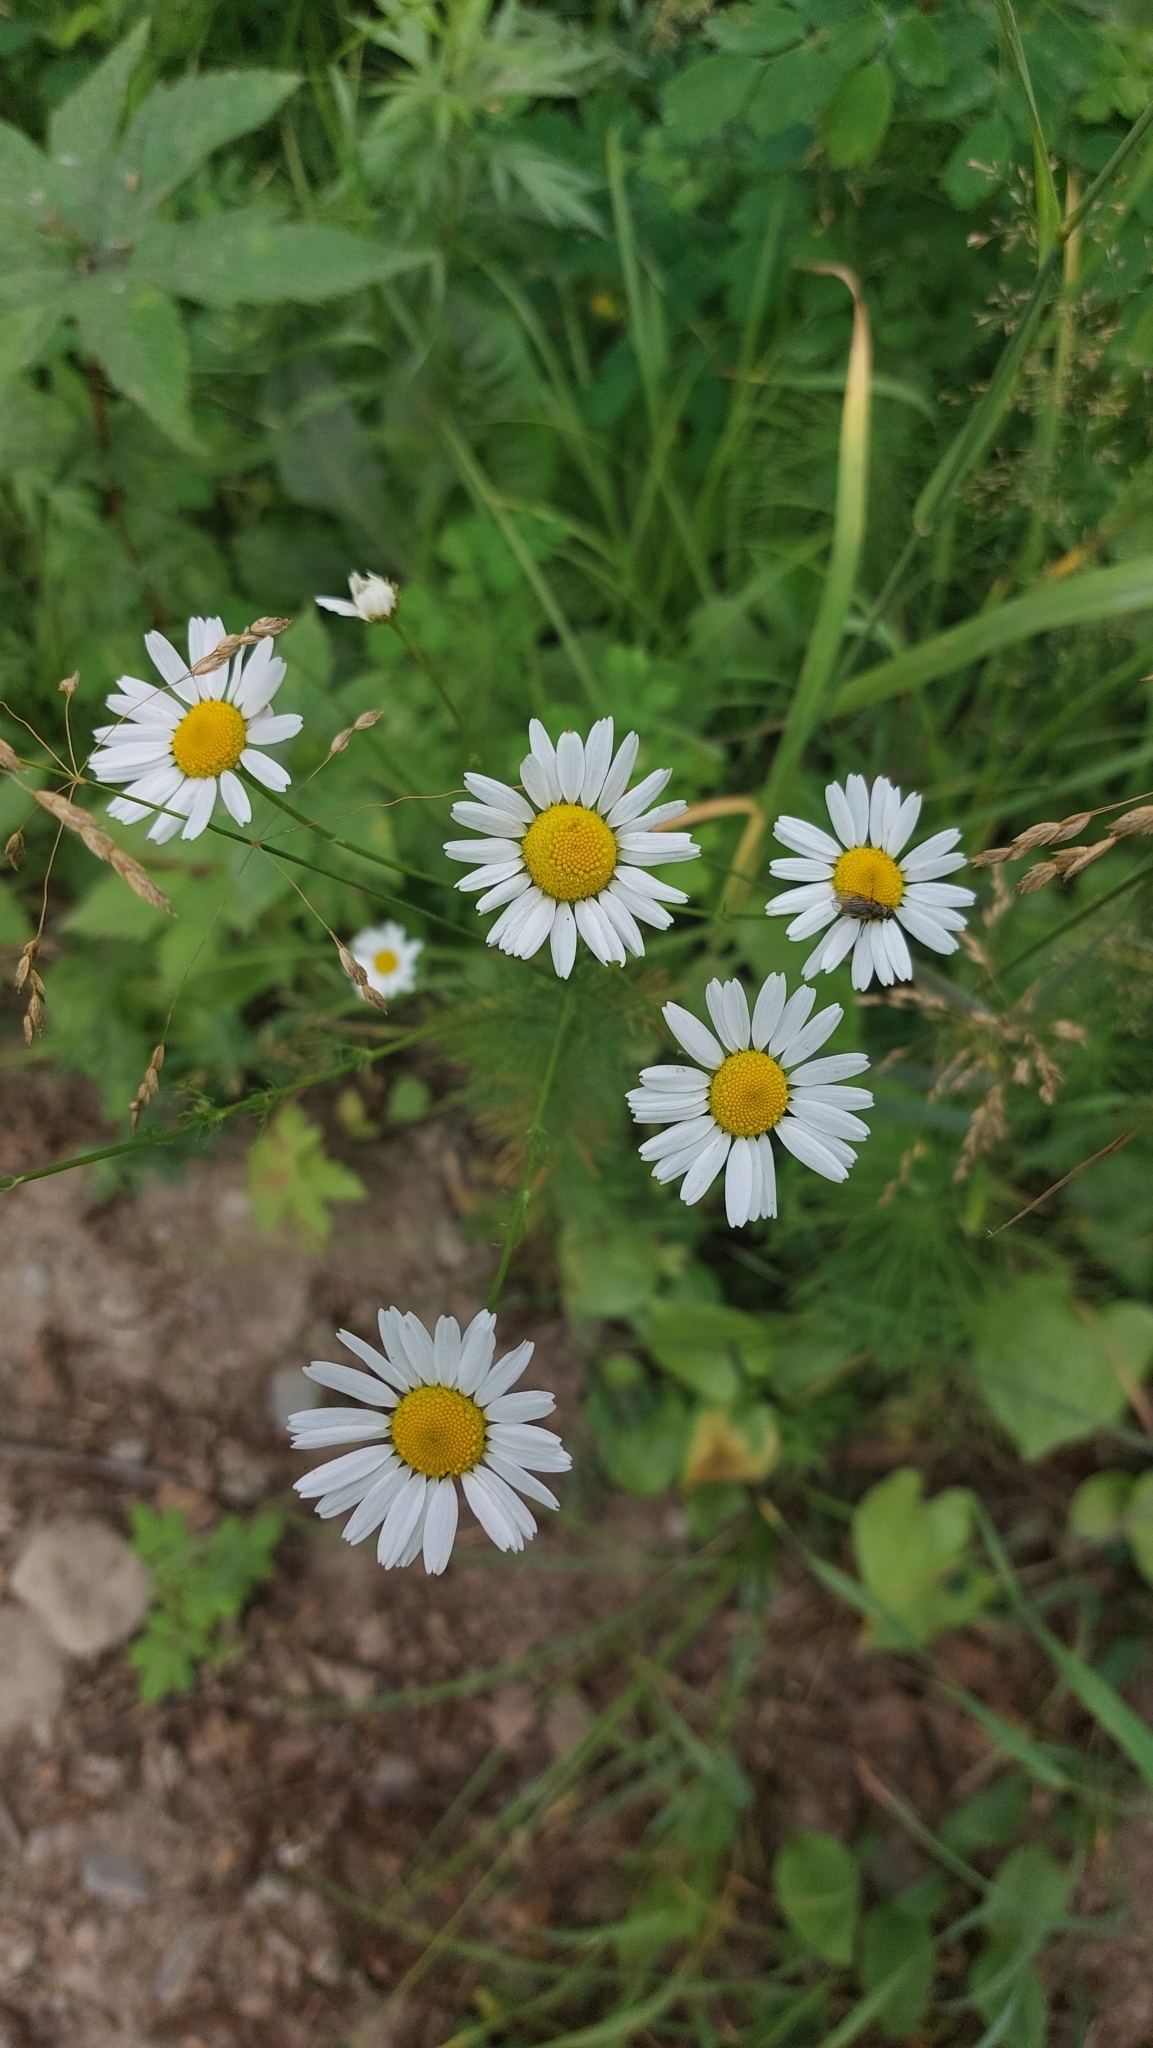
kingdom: Plantae
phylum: Tracheophyta
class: Magnoliopsida
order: Asterales
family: Asteraceae
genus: Tripleurospermum
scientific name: Tripleurospermum inodorum
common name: Scentless mayweed
